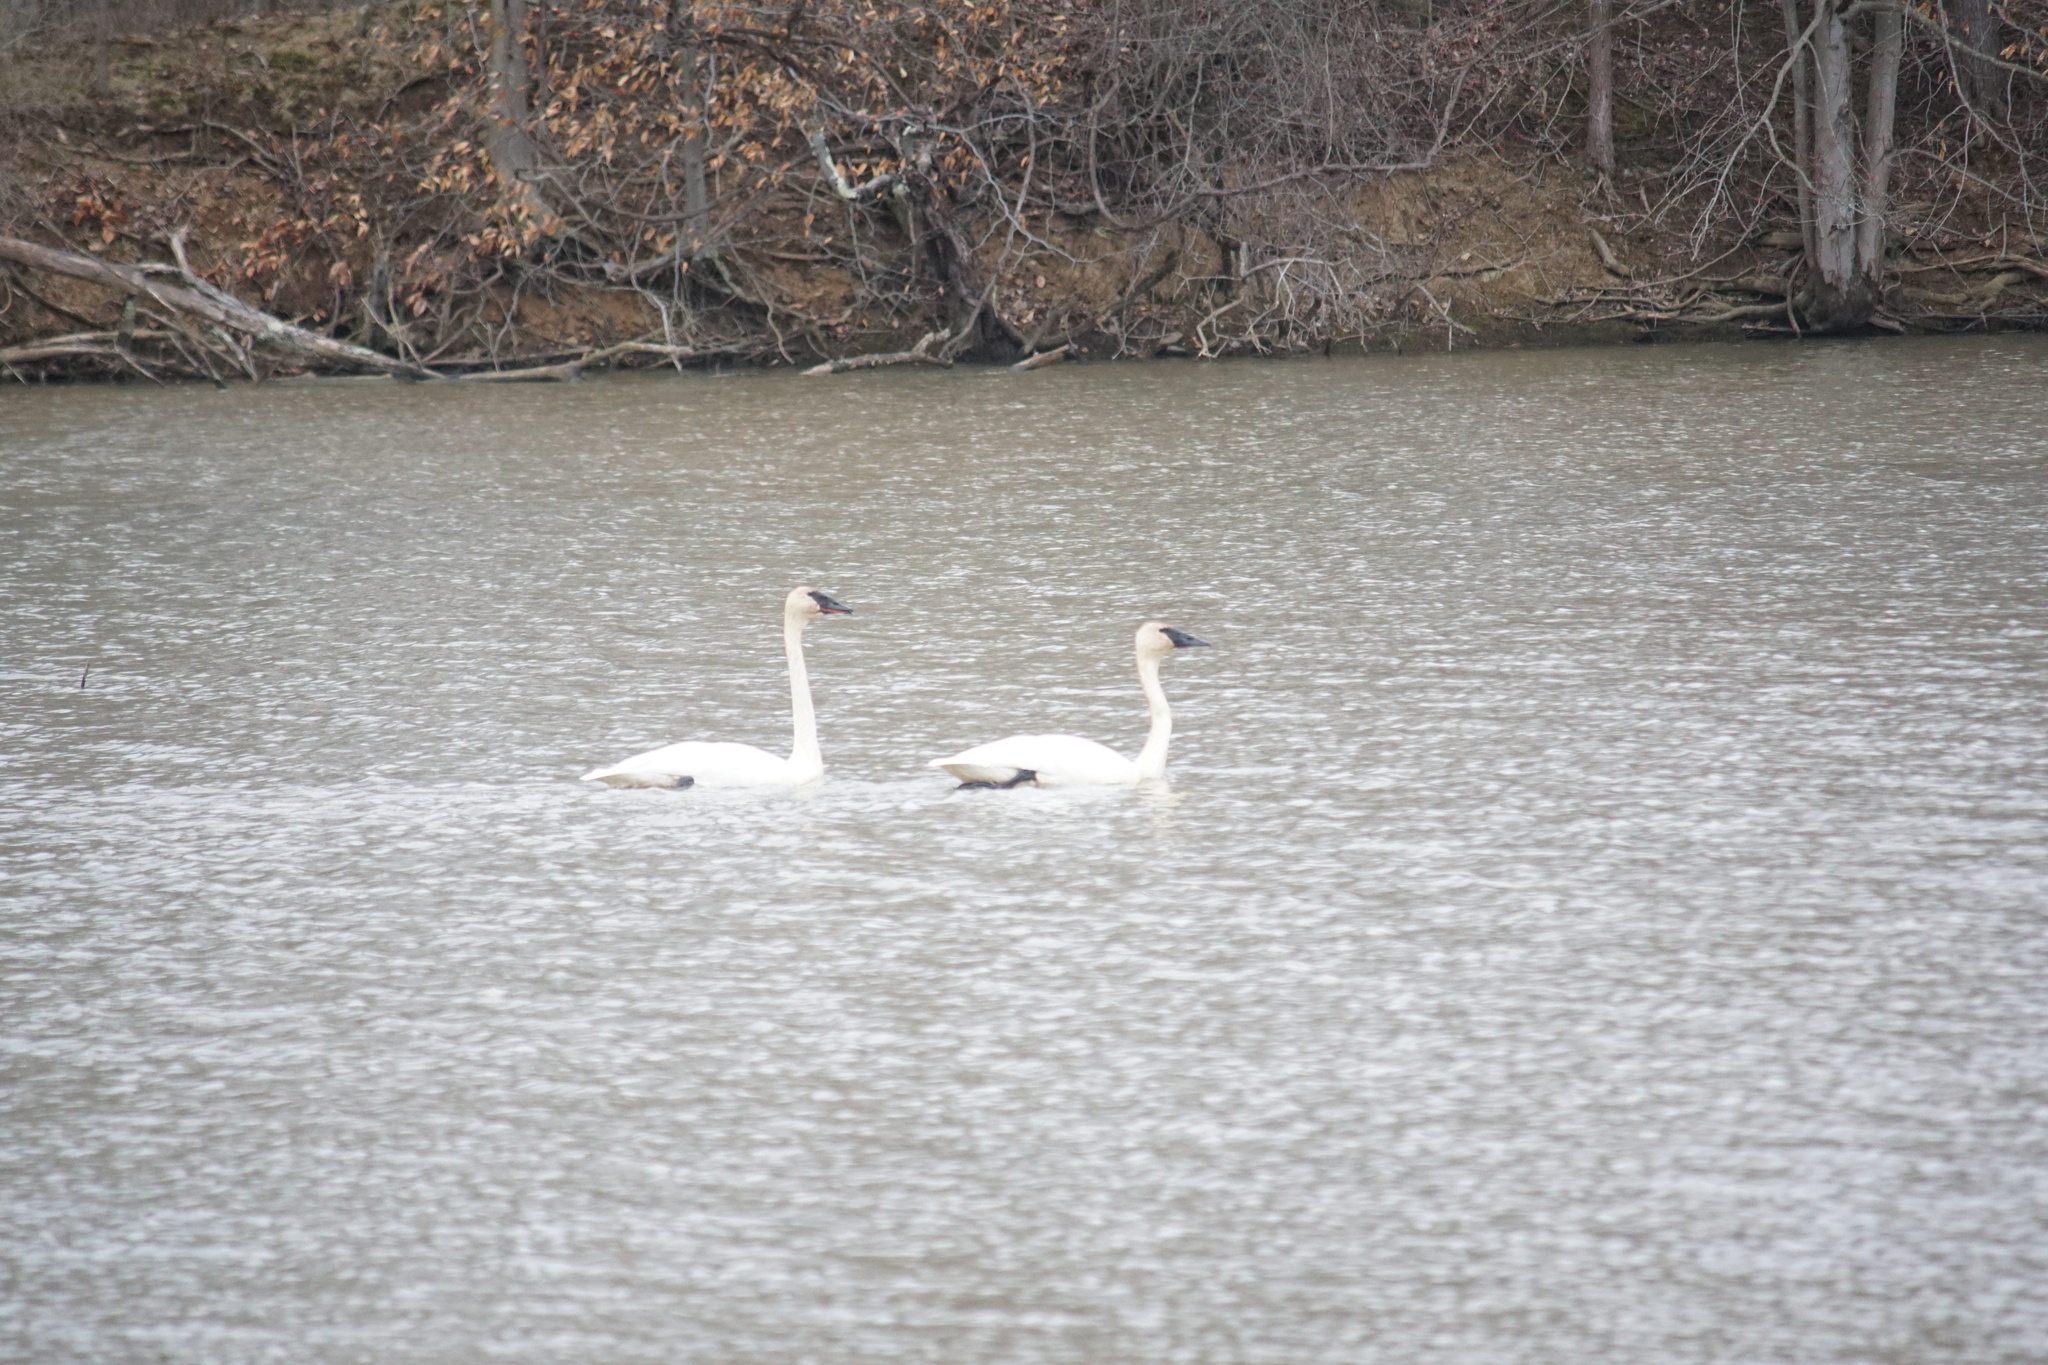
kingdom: Animalia
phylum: Chordata
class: Aves
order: Anseriformes
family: Anatidae
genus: Cygnus
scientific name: Cygnus buccinator
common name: Trumpeter swan
